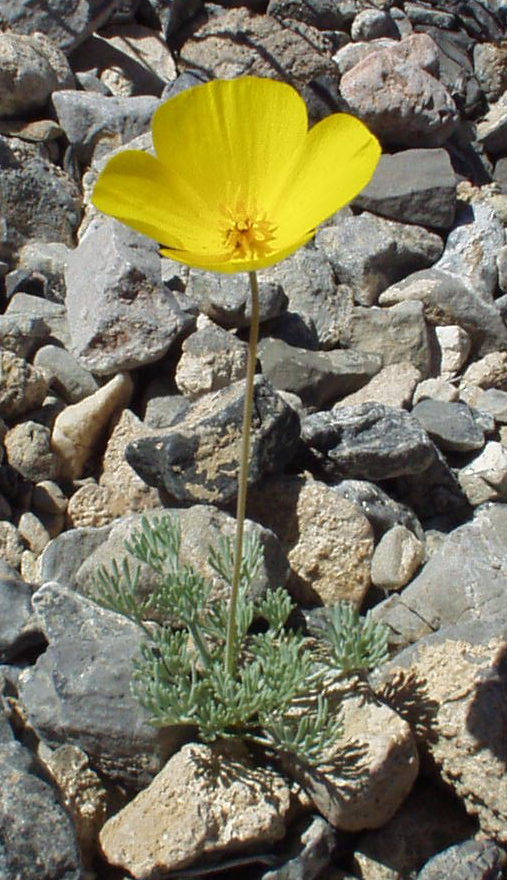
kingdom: Plantae
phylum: Tracheophyta
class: Magnoliopsida
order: Ranunculales
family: Papaveraceae
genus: Eschscholzia
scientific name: Eschscholzia glyptosperma
